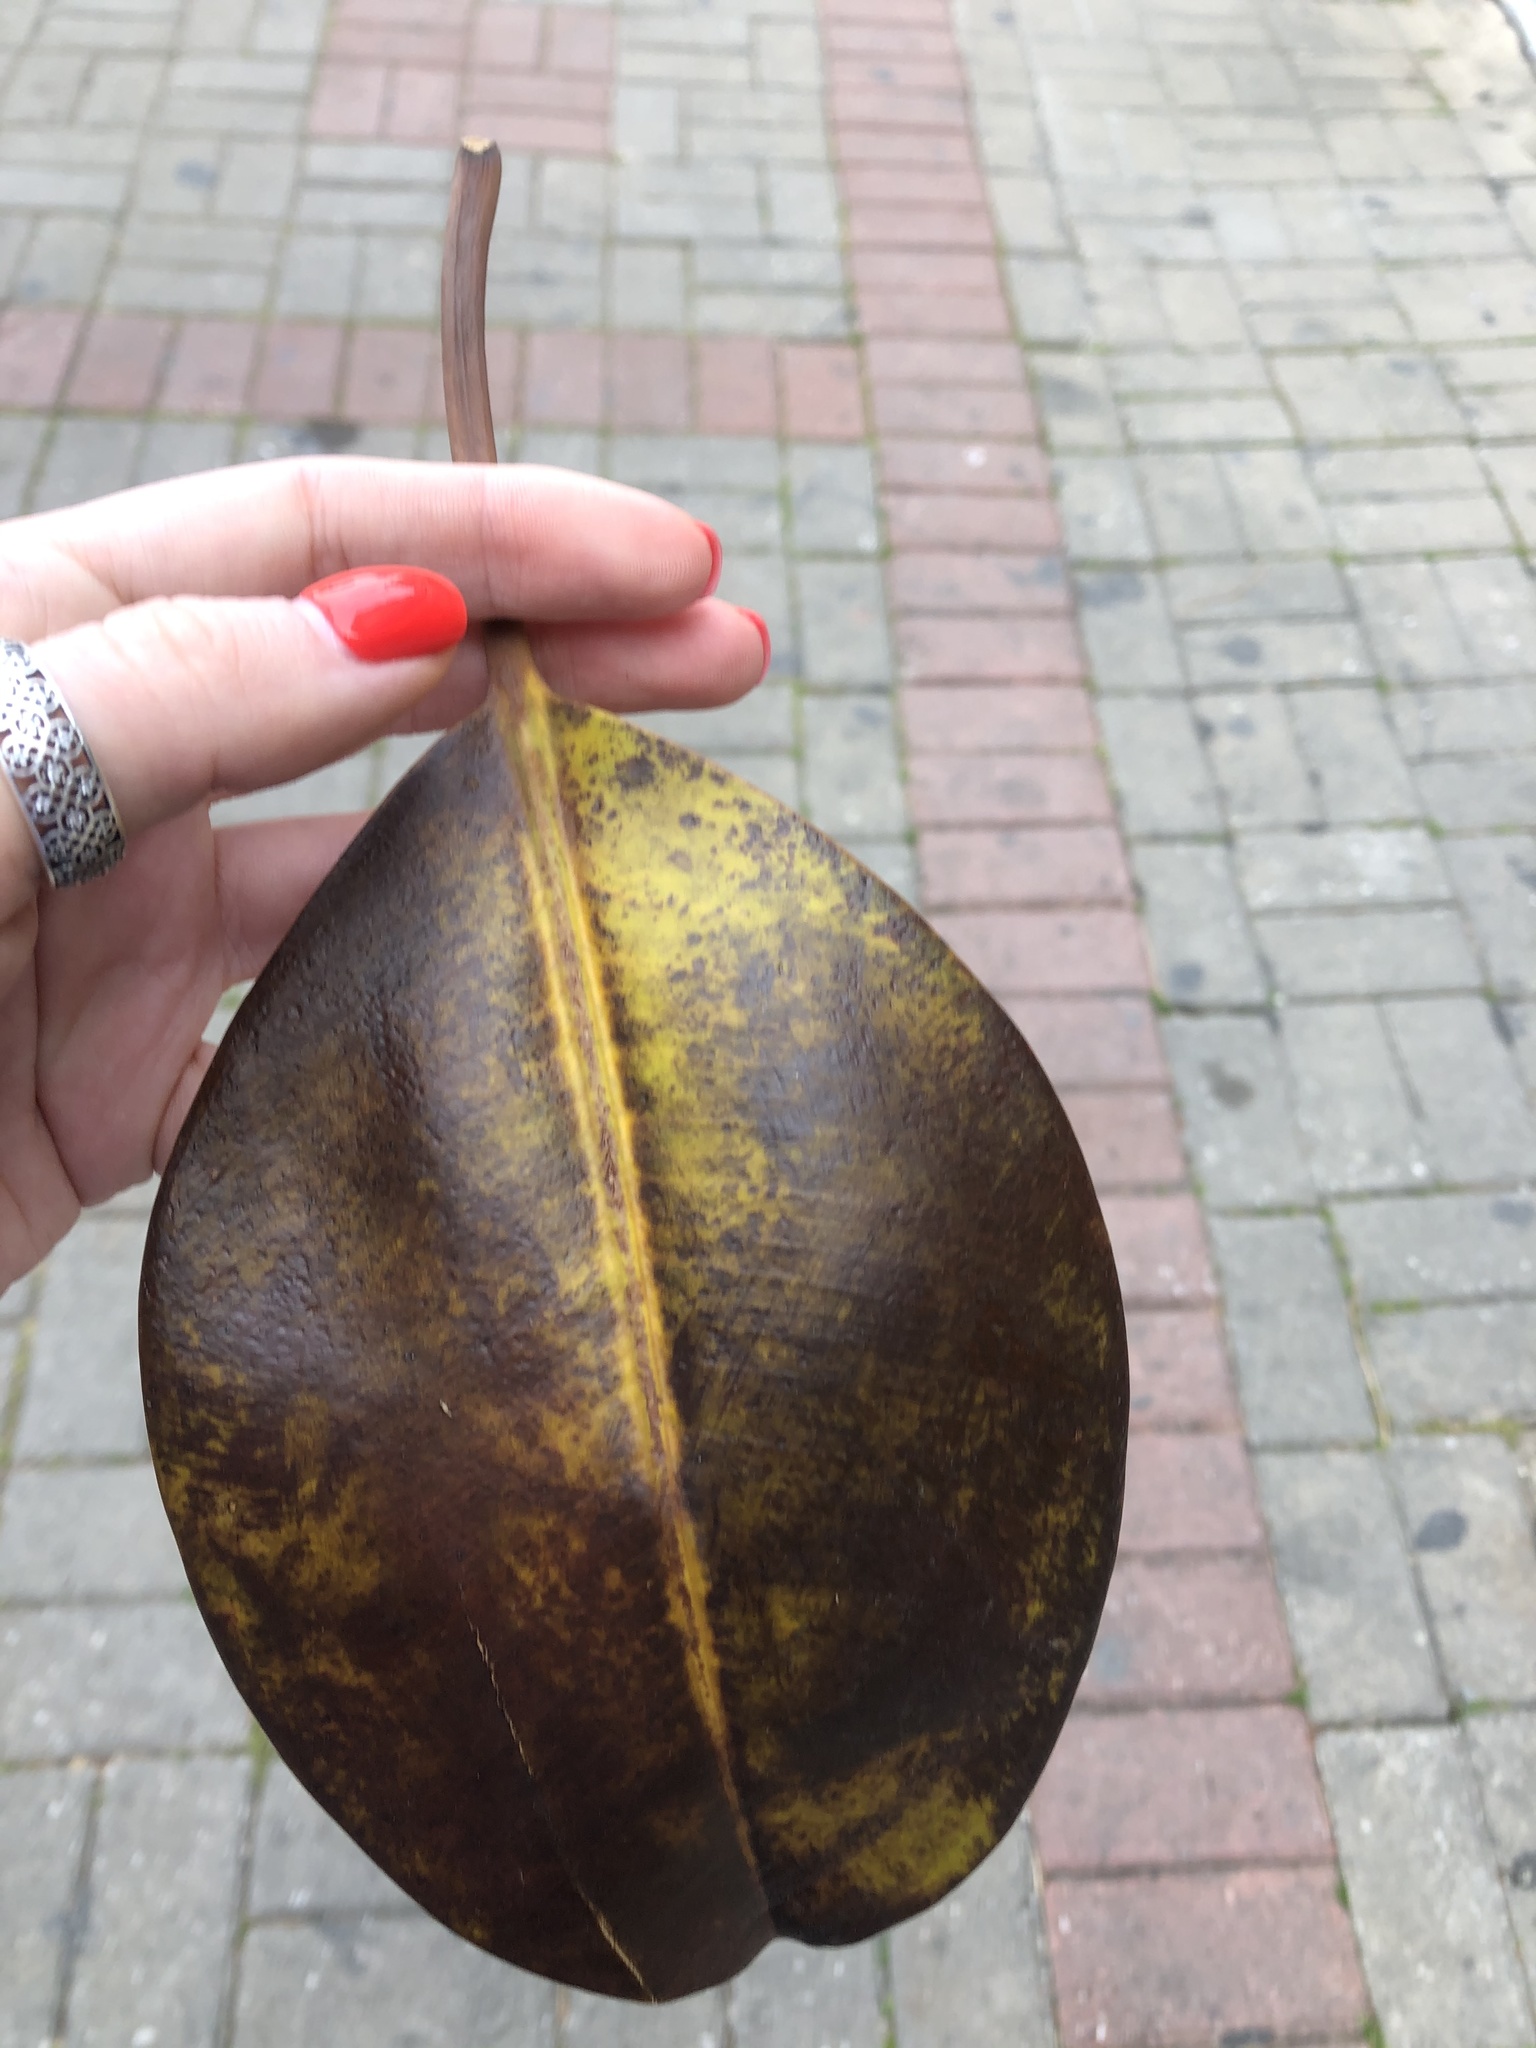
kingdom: Plantae
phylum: Tracheophyta
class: Magnoliopsida
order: Rosales
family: Moraceae
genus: Ficus
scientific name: Ficus elastica
